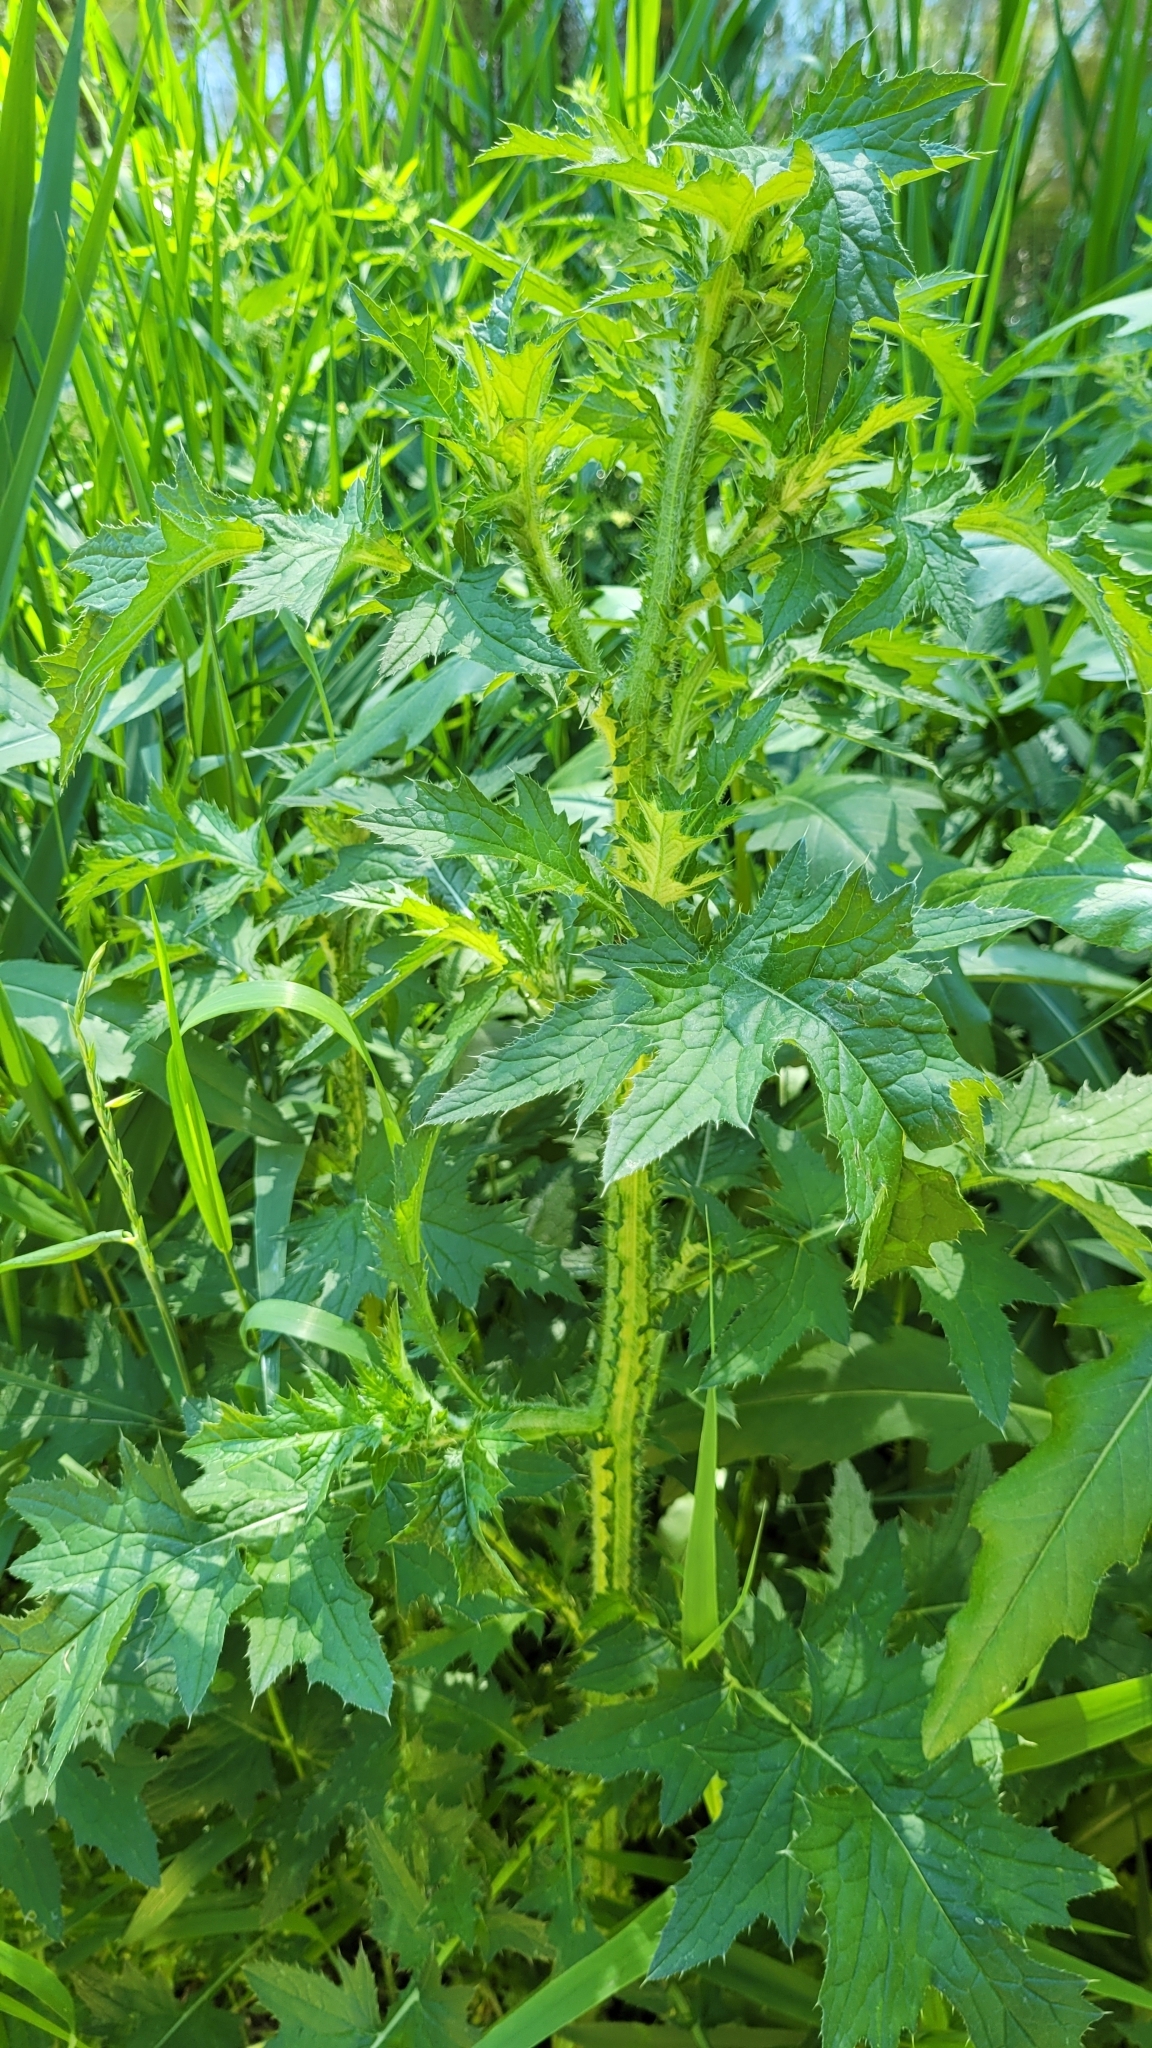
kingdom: Plantae
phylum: Tracheophyta
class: Magnoliopsida
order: Asterales
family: Asteraceae
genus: Carduus
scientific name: Carduus crispus
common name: Welted thistle
